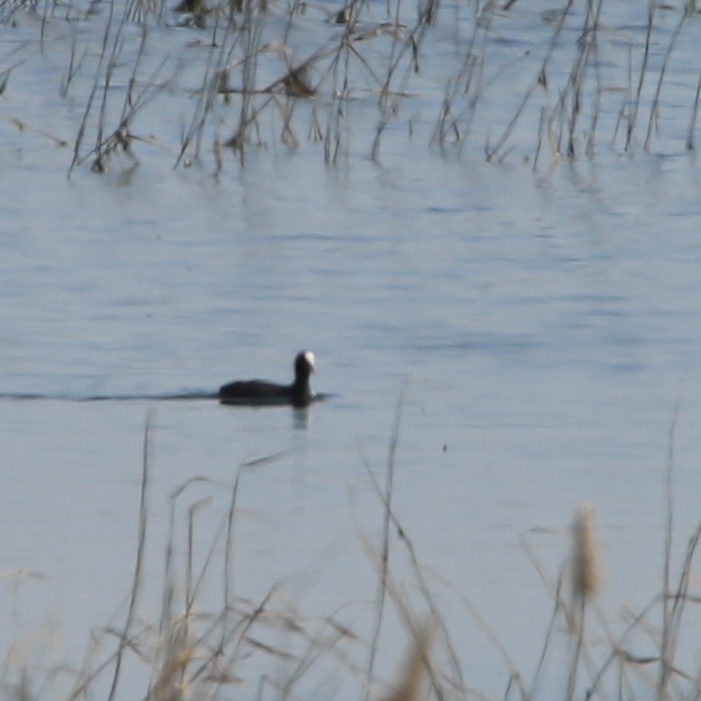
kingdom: Animalia
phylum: Chordata
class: Aves
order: Gruiformes
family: Rallidae
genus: Fulica
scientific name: Fulica atra
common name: Eurasian coot
